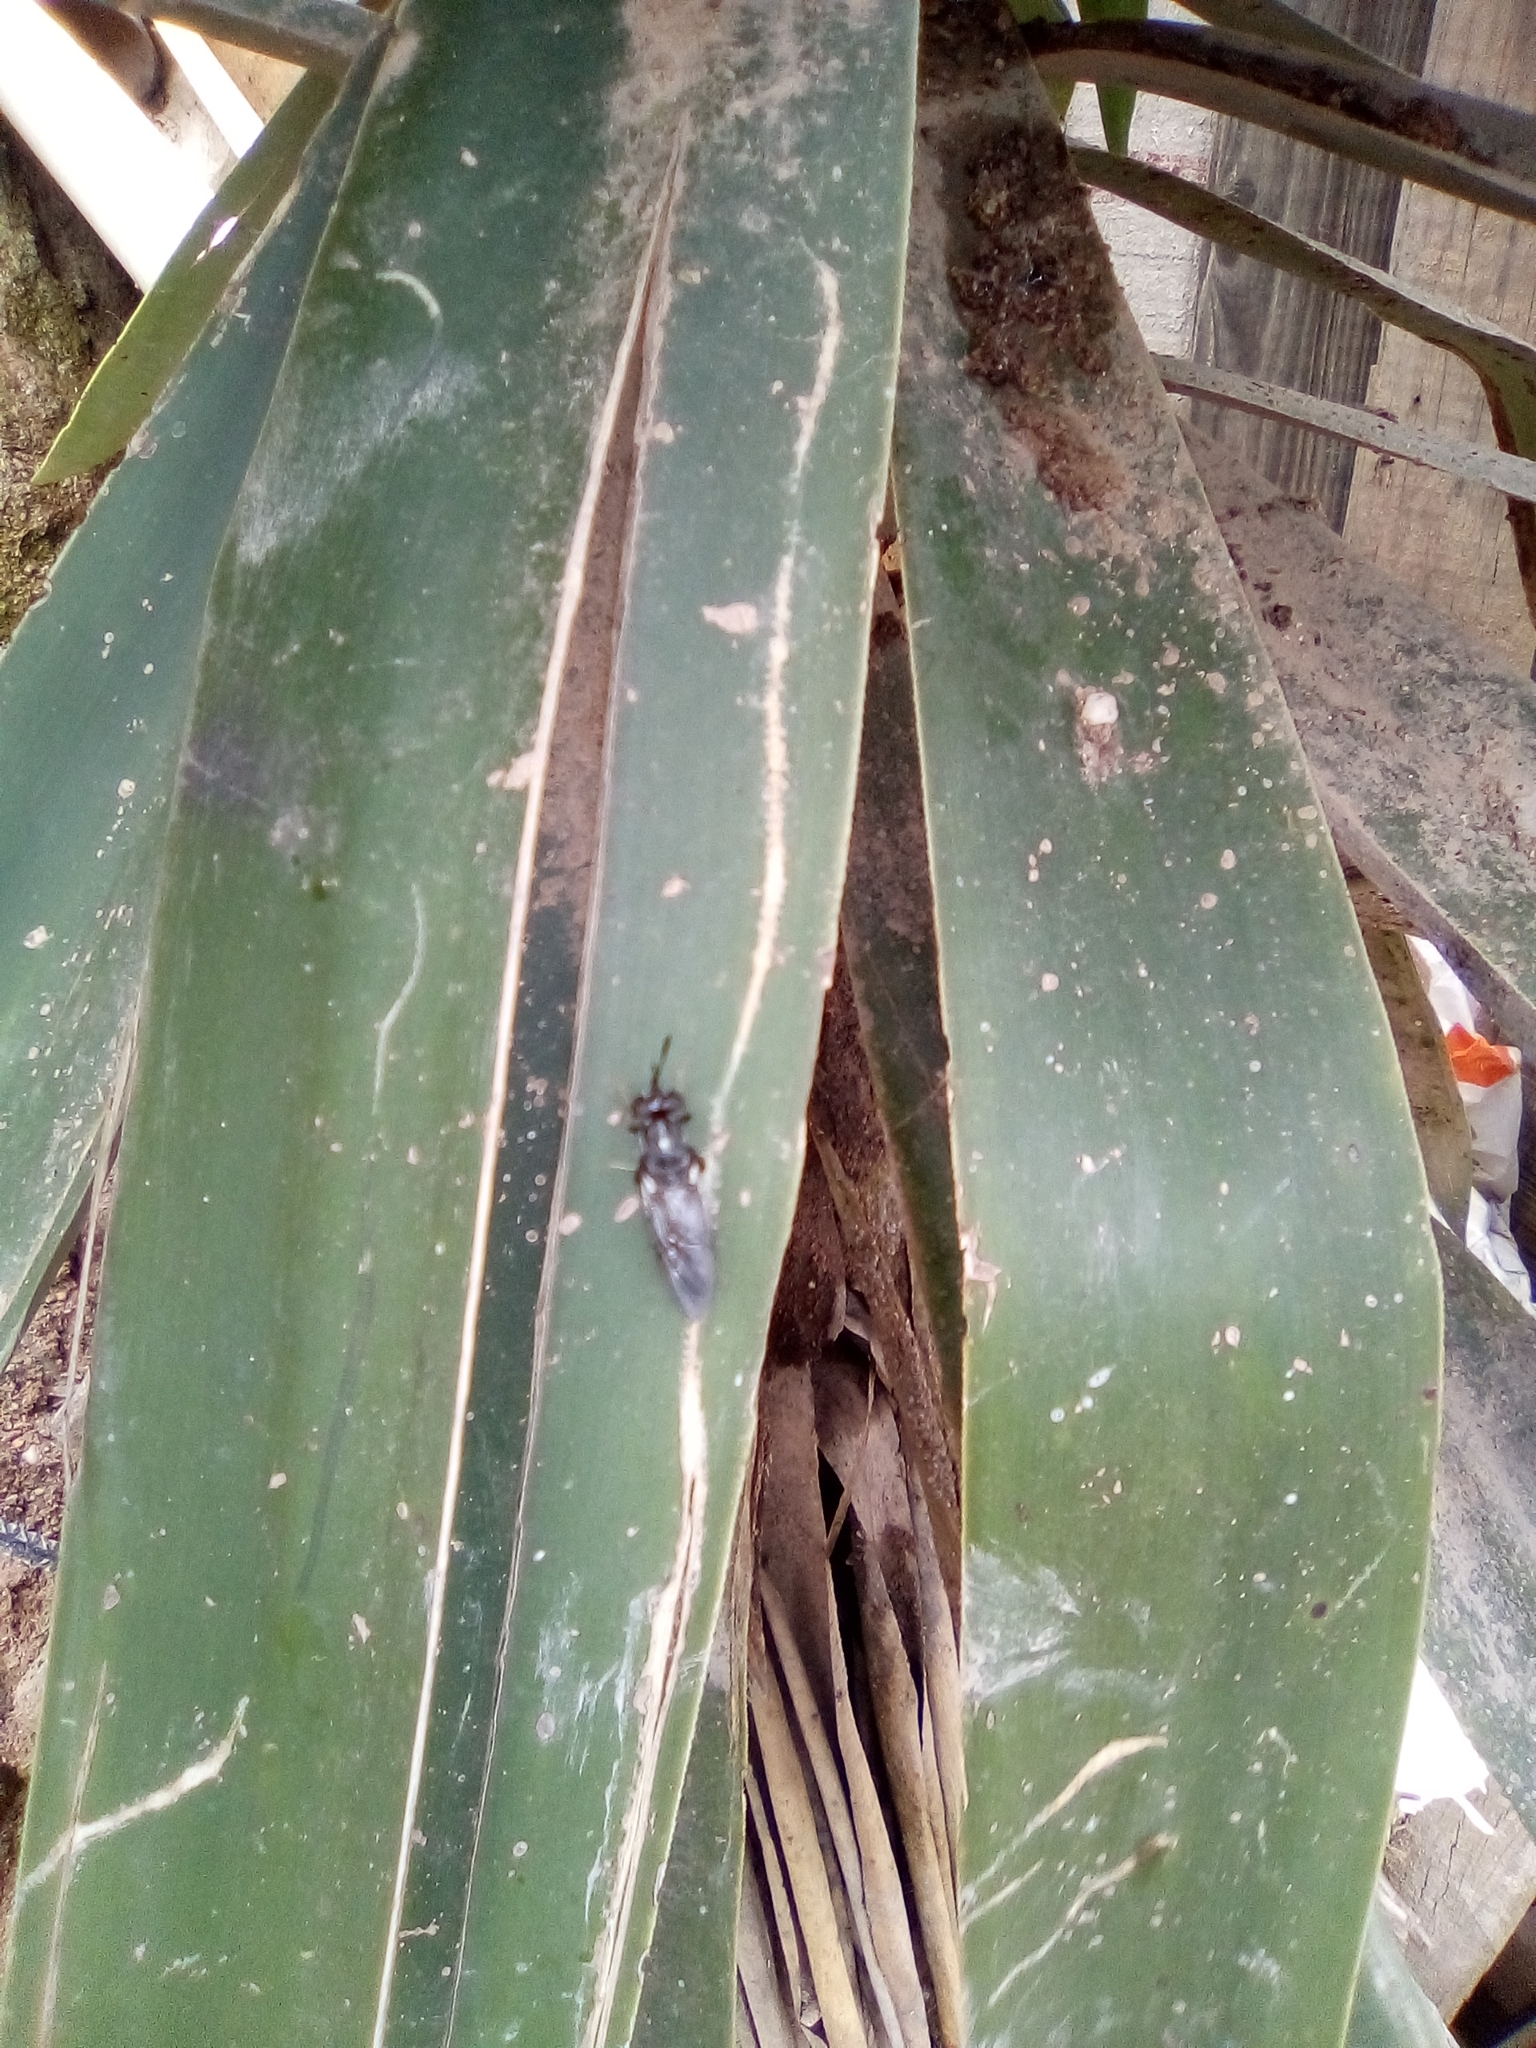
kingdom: Animalia
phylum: Arthropoda
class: Insecta
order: Diptera
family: Stratiomyidae
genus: Hermetia
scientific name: Hermetia illucens
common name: Black soldier fly
